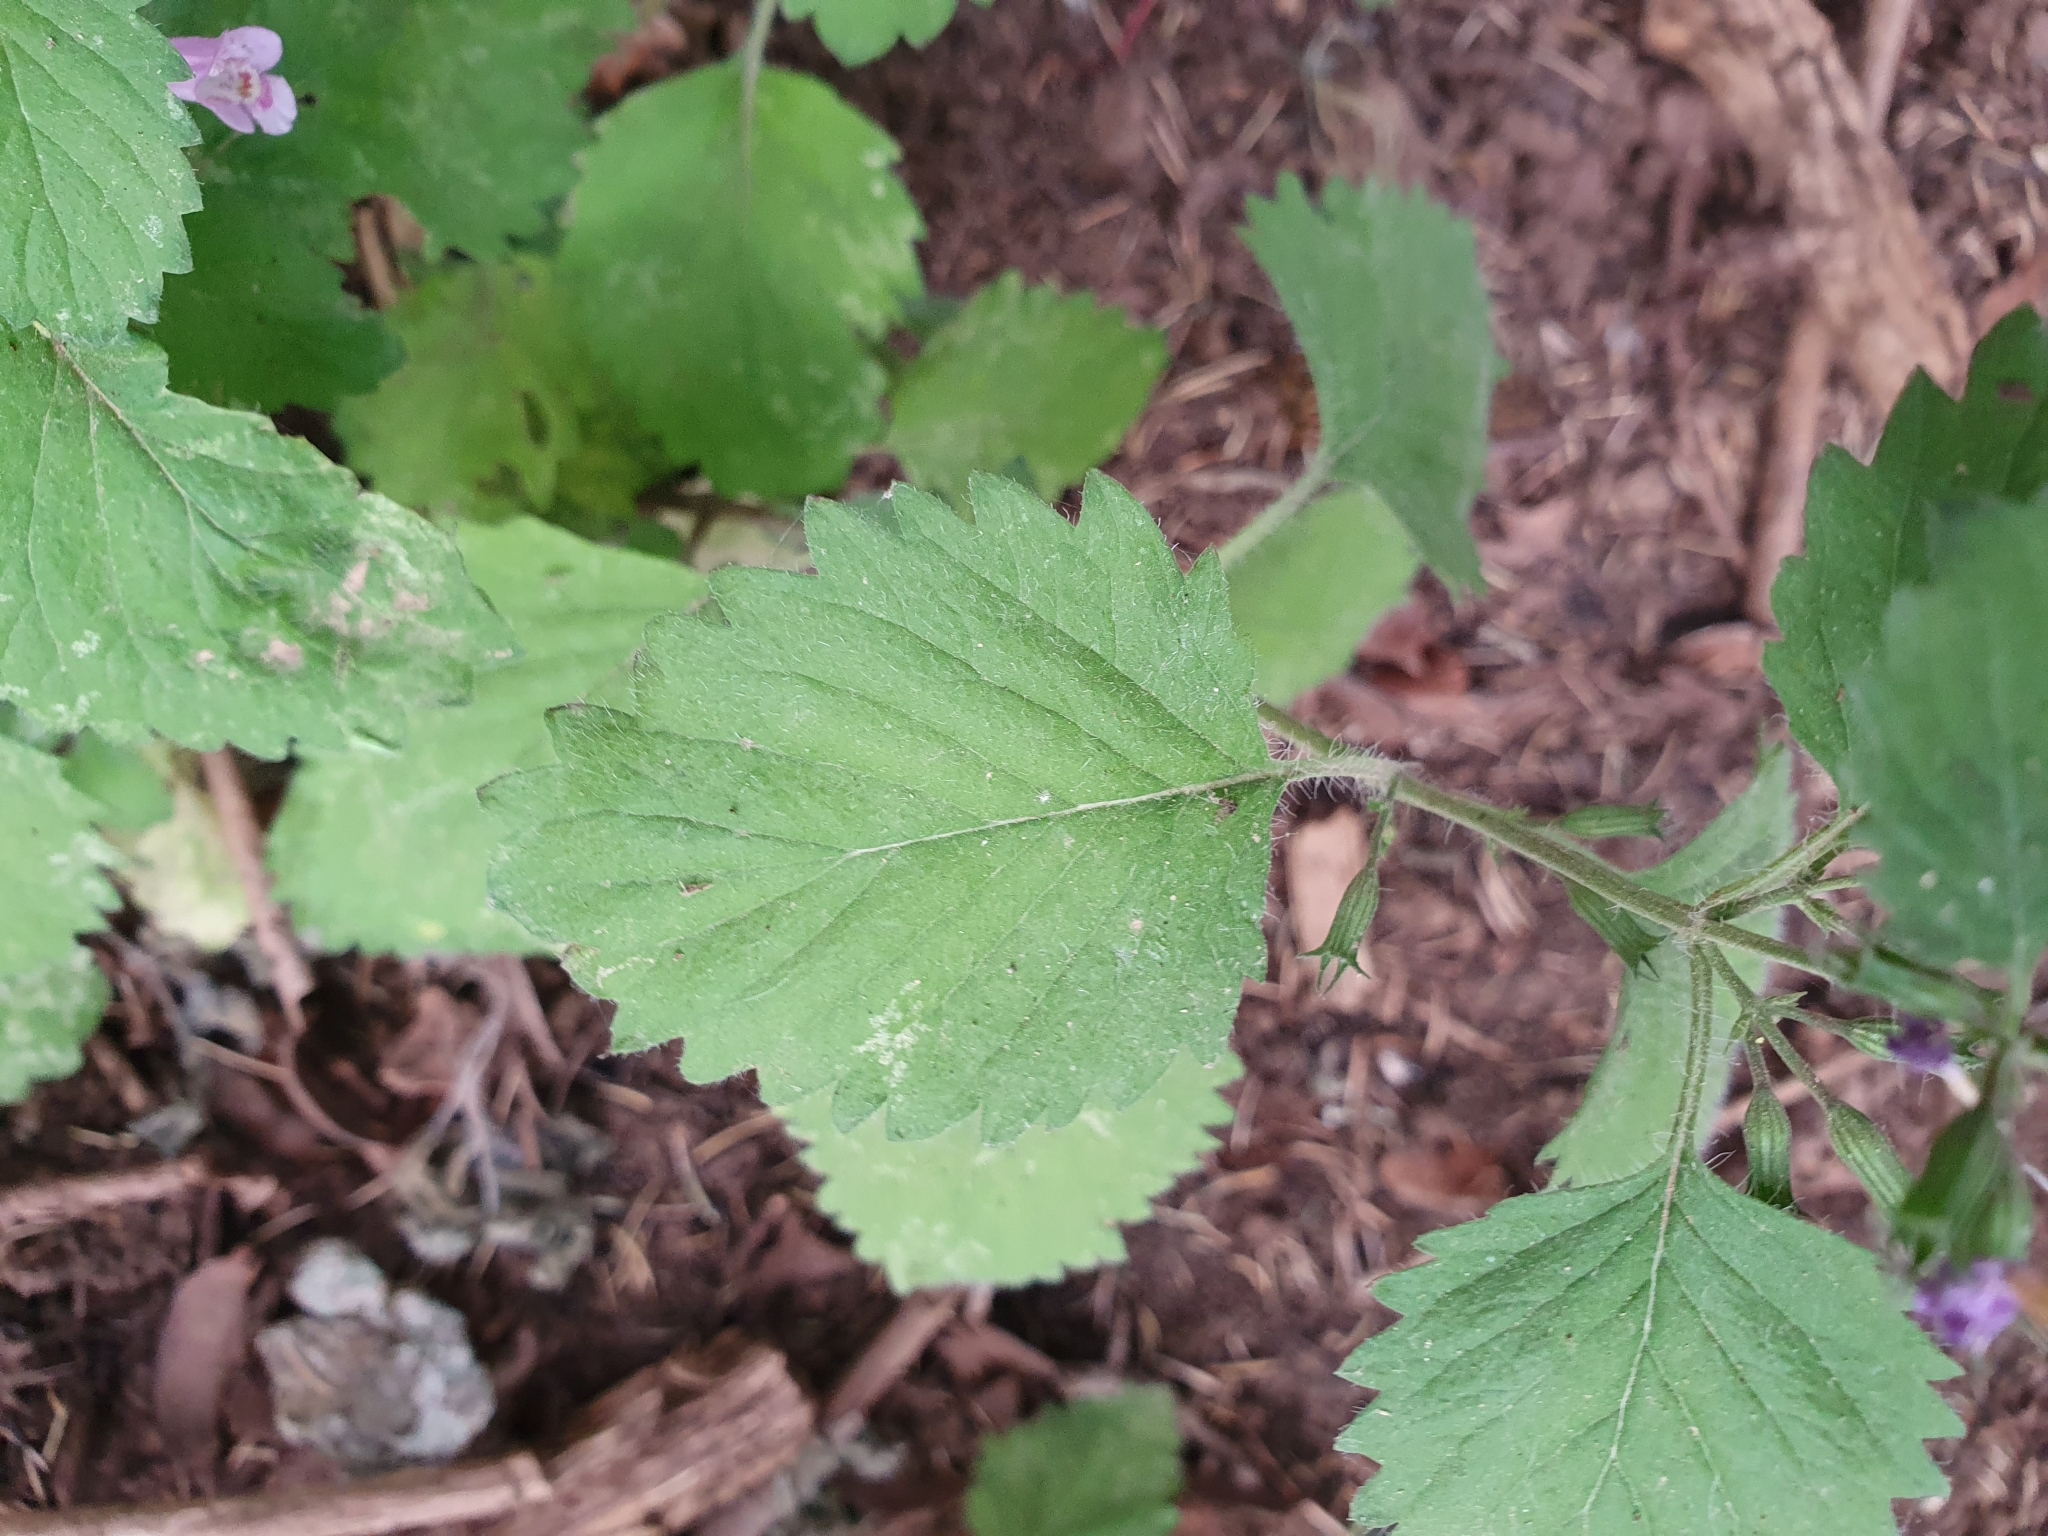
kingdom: Plantae
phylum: Tracheophyta
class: Magnoliopsida
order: Lamiales
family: Lamiaceae
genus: Clinopodium
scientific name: Clinopodium grandiflorum
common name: Greater calamint
